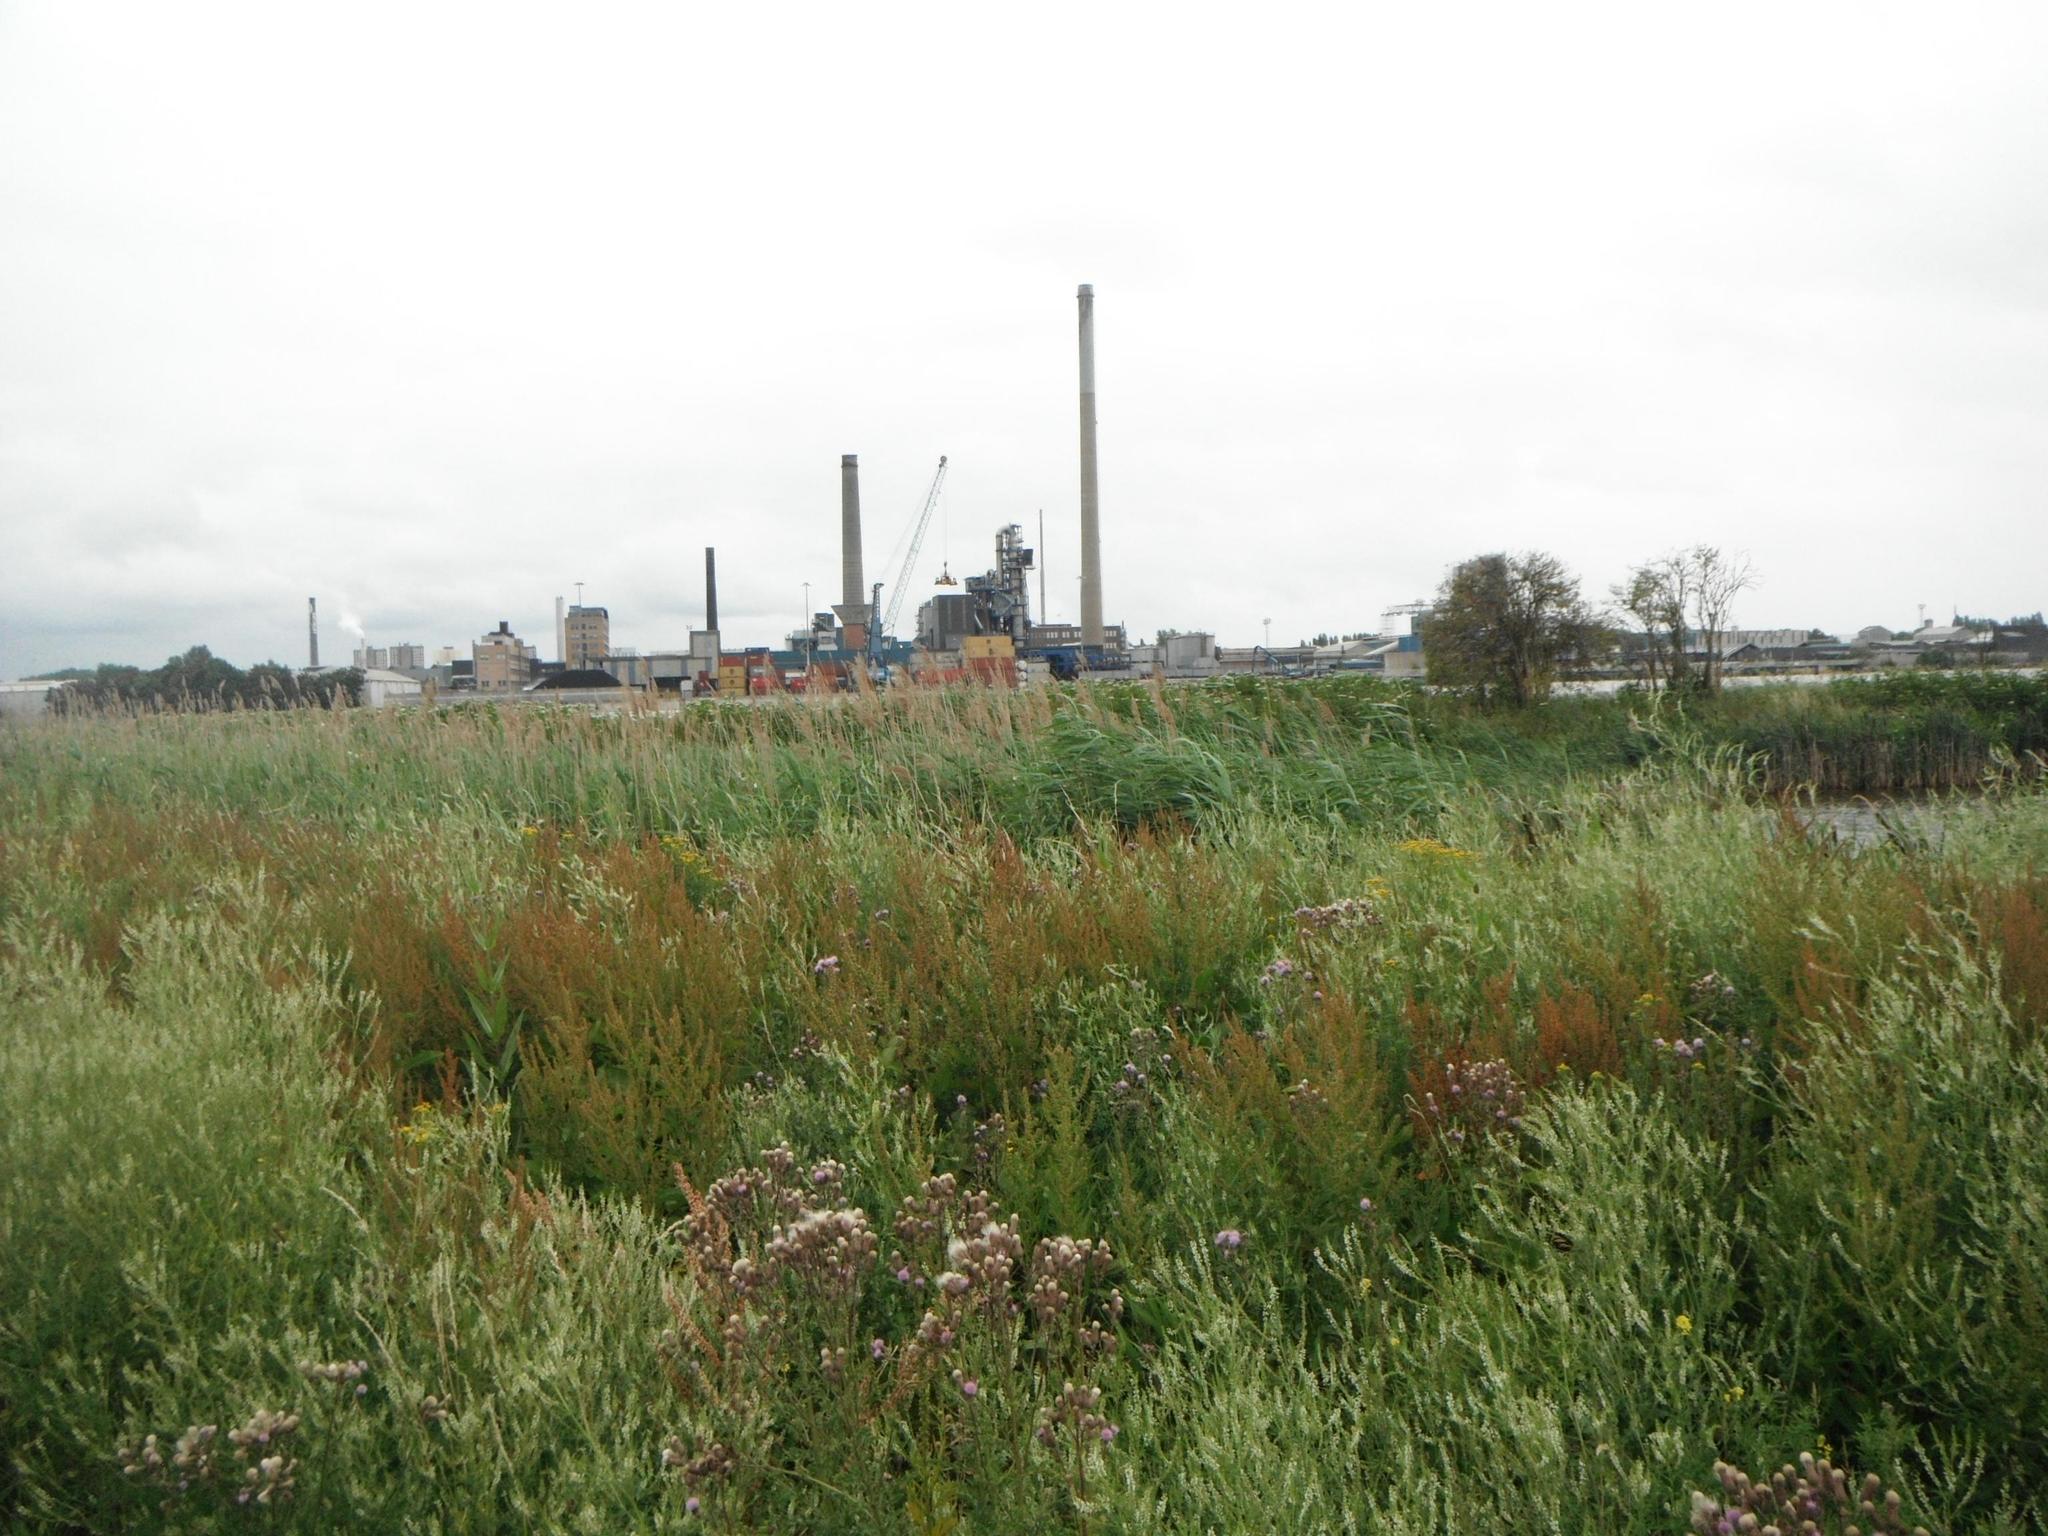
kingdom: Plantae
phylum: Tracheophyta
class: Magnoliopsida
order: Caryophyllales
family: Polygonaceae
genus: Rumex
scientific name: Rumex obtusifolius
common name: Bitter dock
